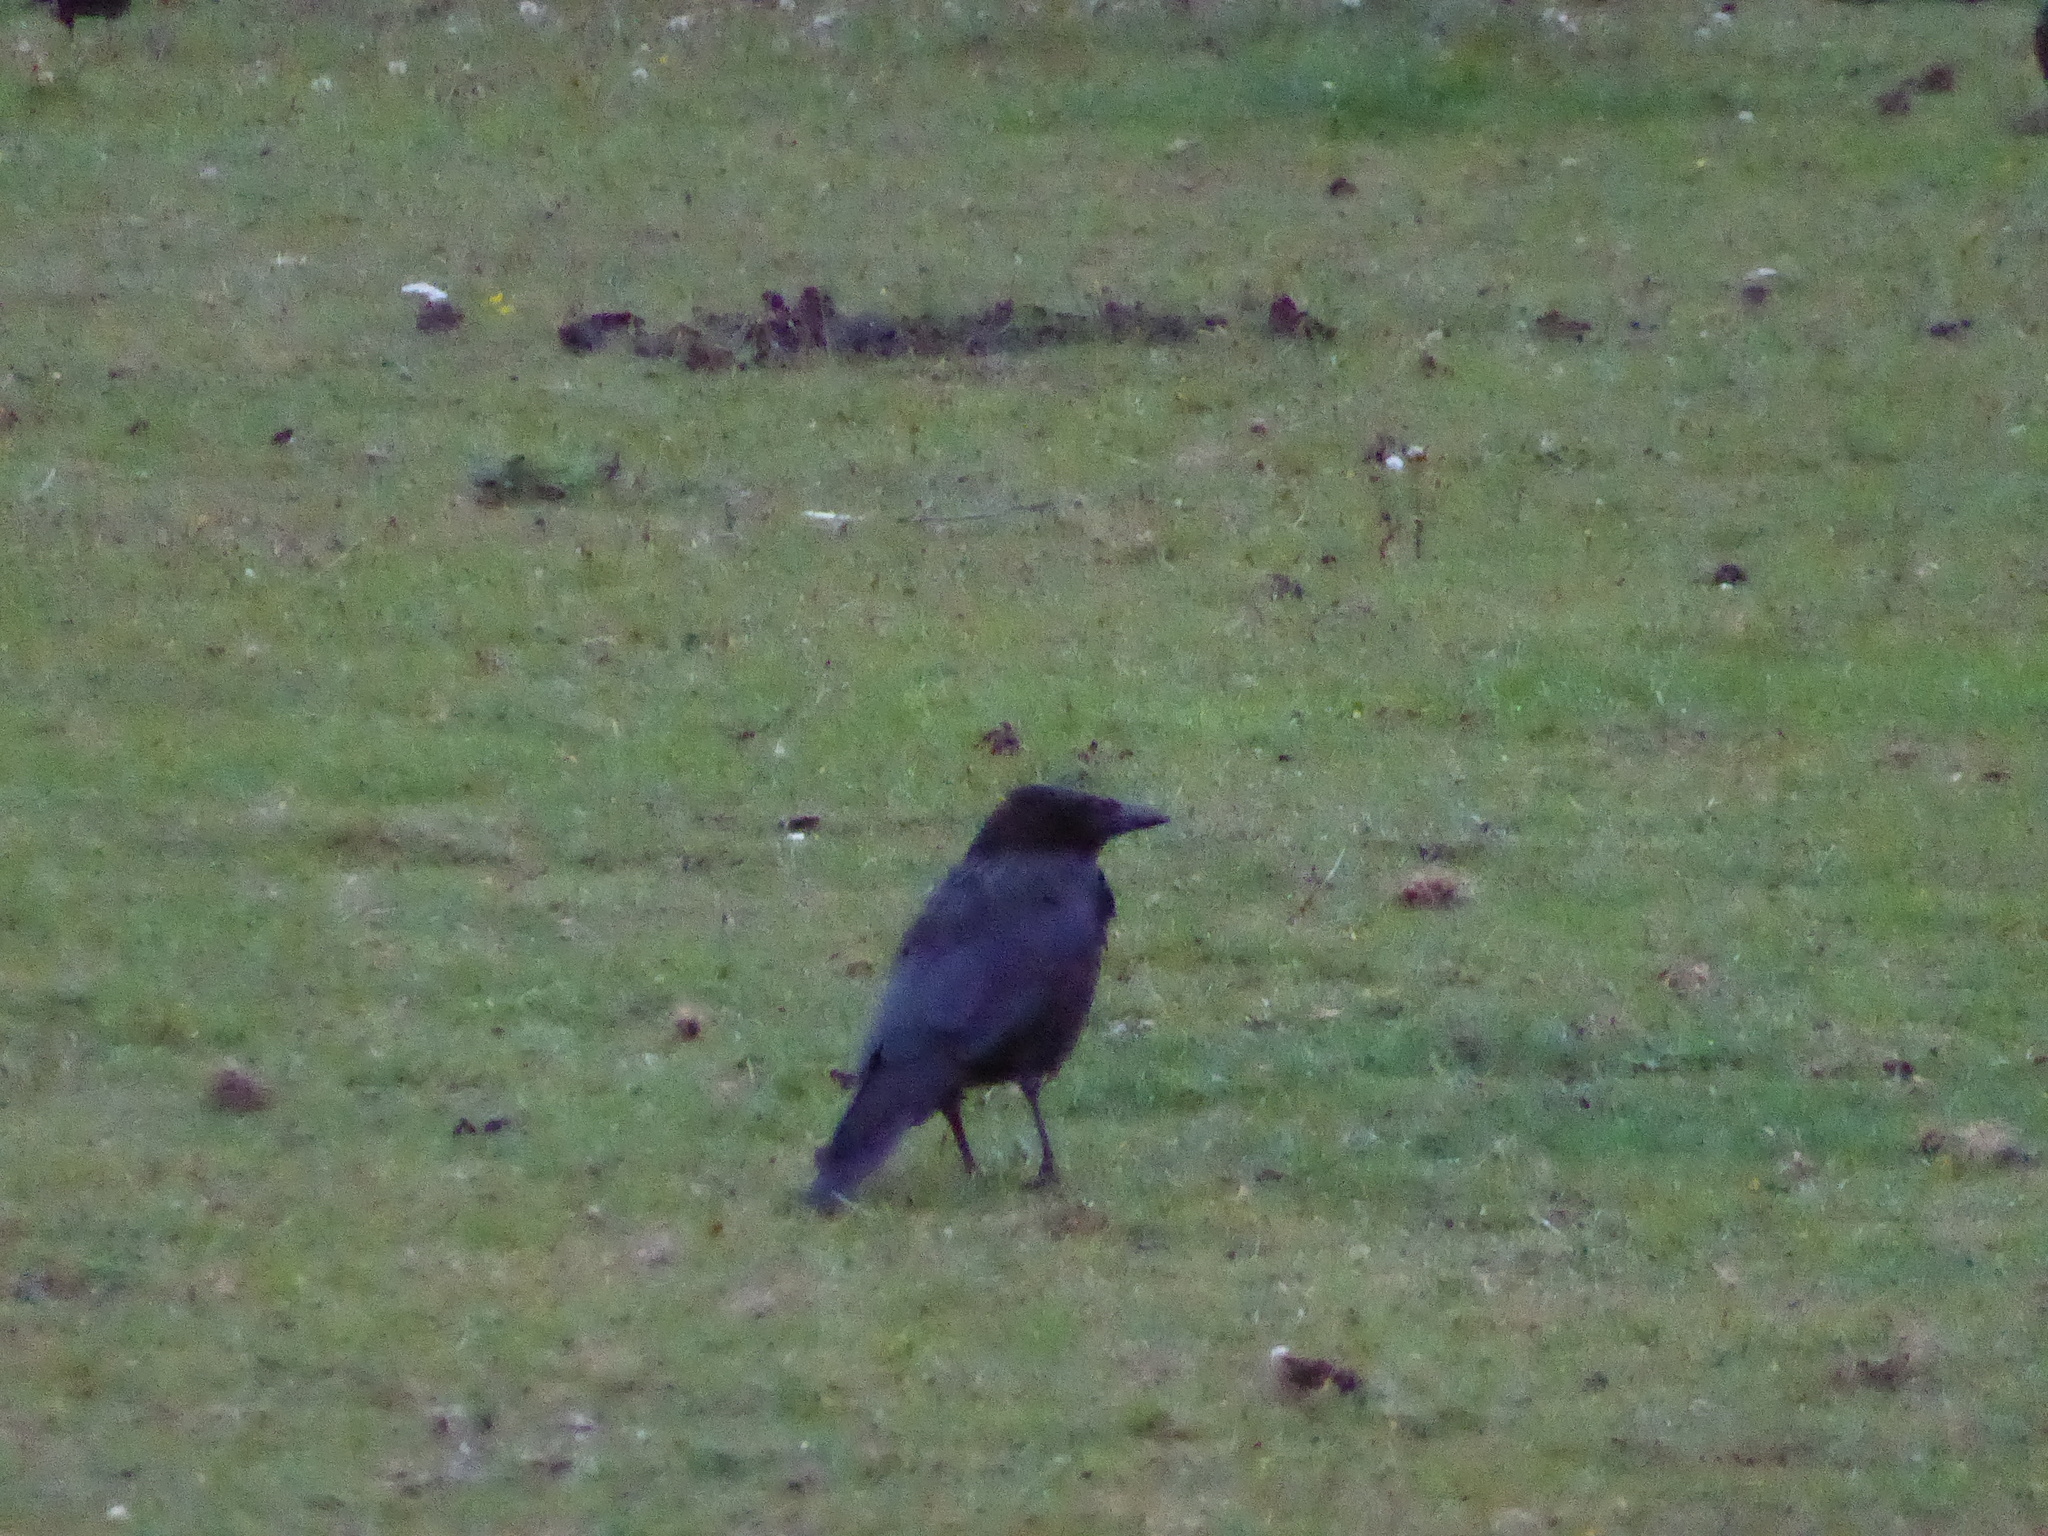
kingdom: Animalia
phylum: Chordata
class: Aves
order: Passeriformes
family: Corvidae
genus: Corvus
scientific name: Corvus corone
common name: Carrion crow
